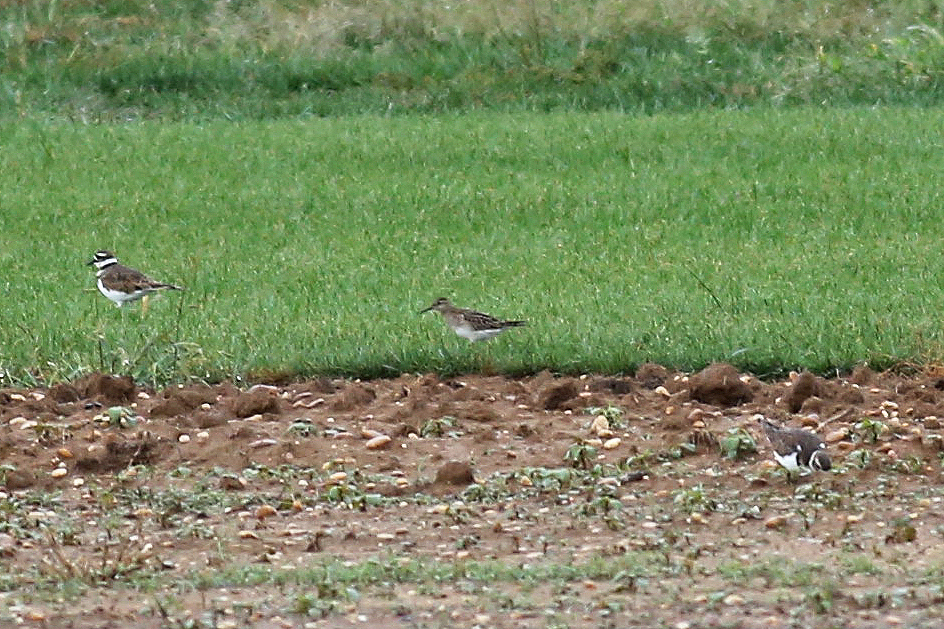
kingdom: Animalia
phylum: Chordata
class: Aves
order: Charadriiformes
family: Scolopacidae
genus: Calidris
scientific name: Calidris bairdii
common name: Baird's sandpiper
